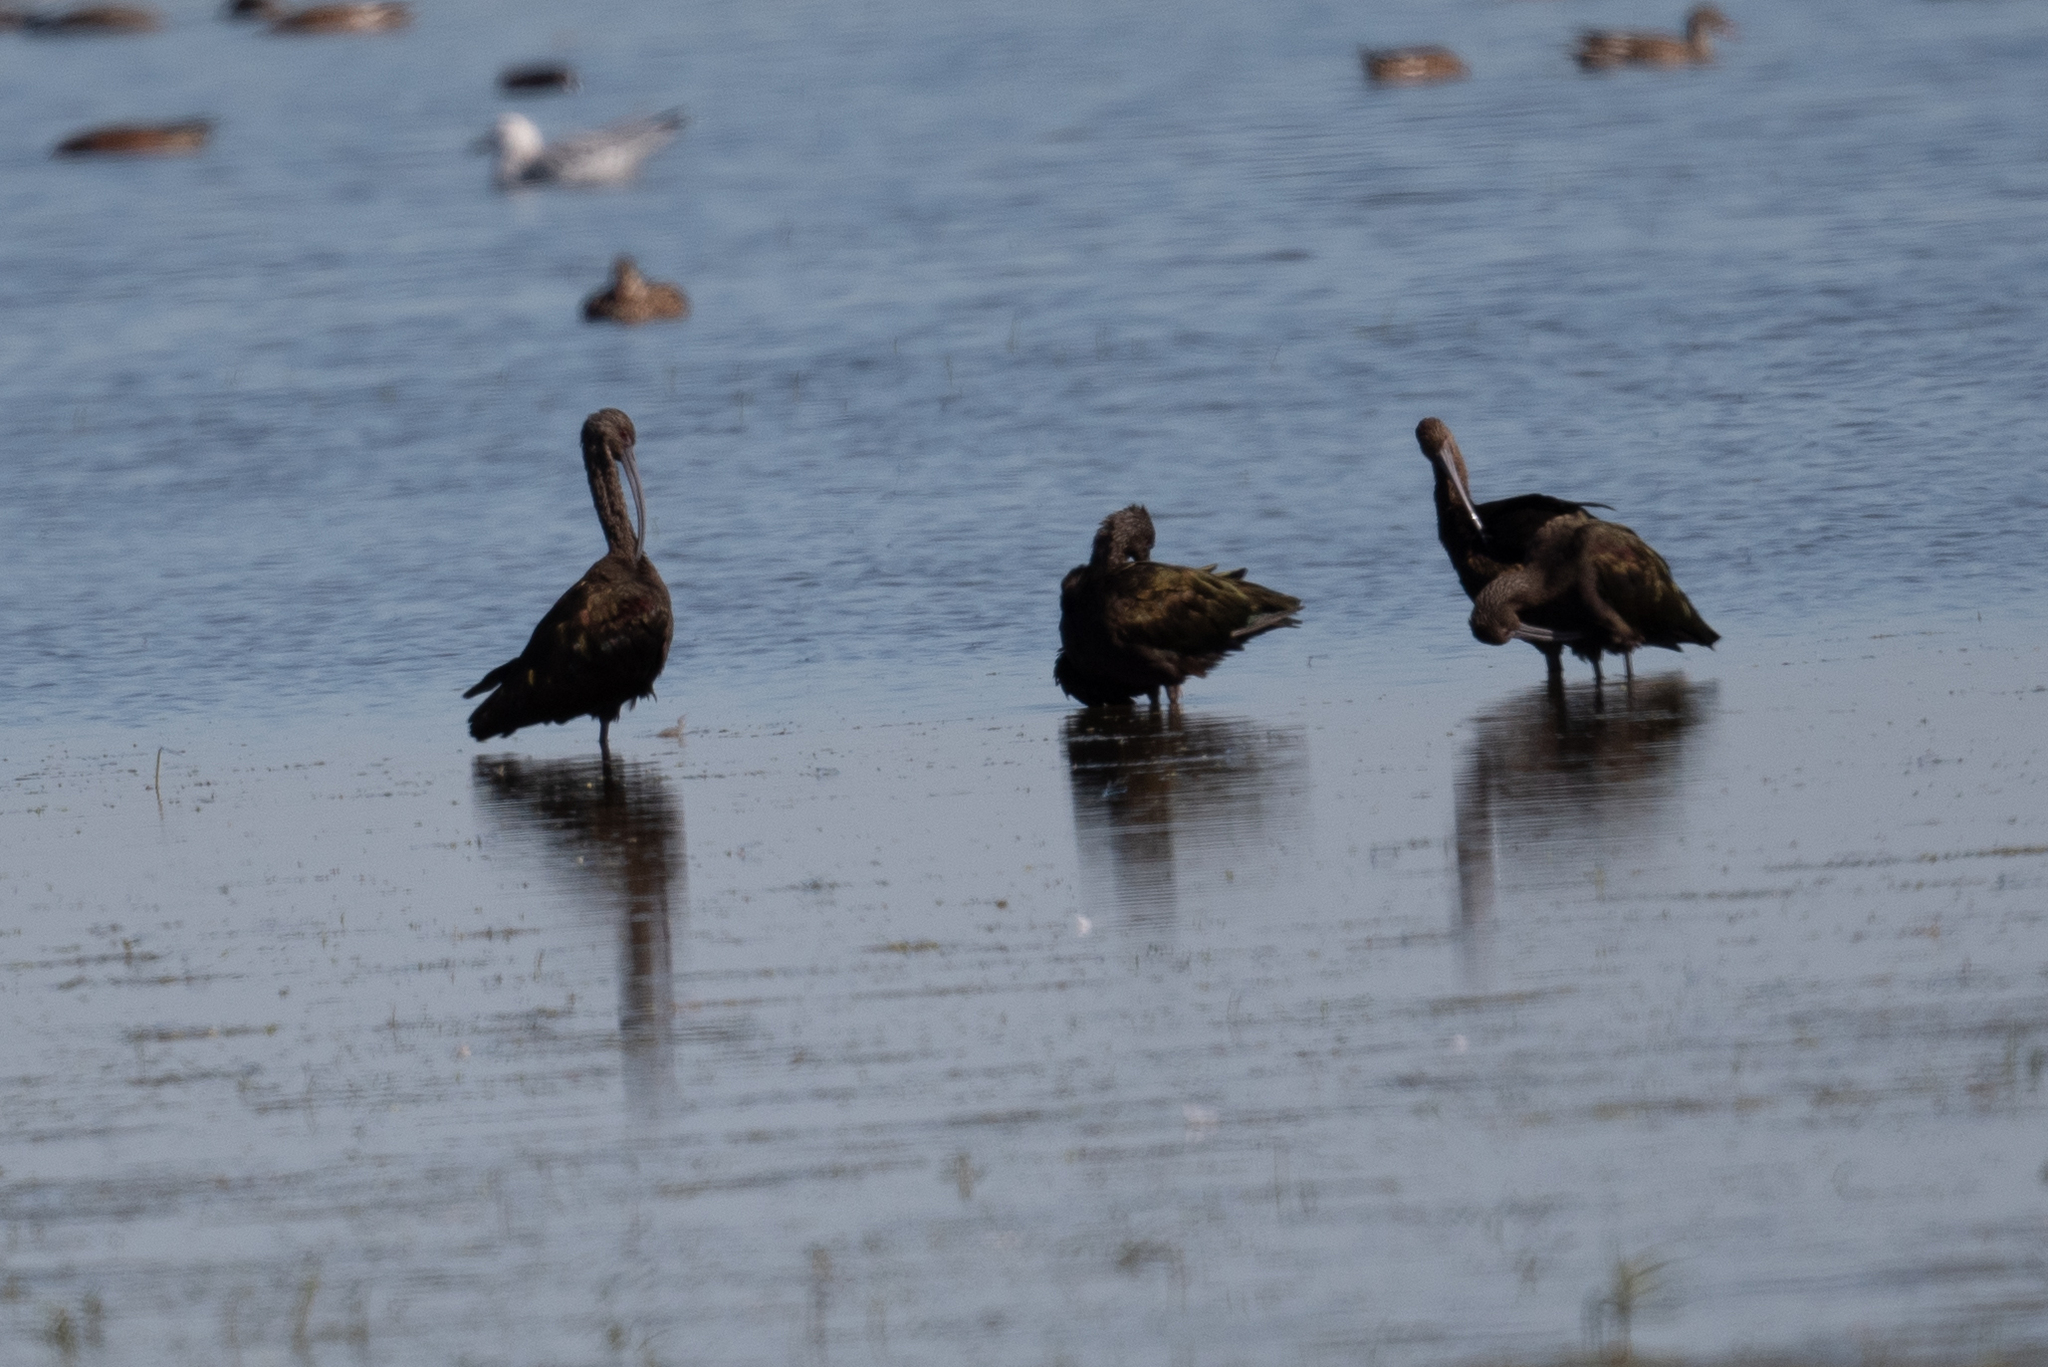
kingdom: Animalia
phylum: Chordata
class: Aves
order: Pelecaniformes
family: Threskiornithidae
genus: Plegadis
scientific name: Plegadis chihi
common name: White-faced ibis
